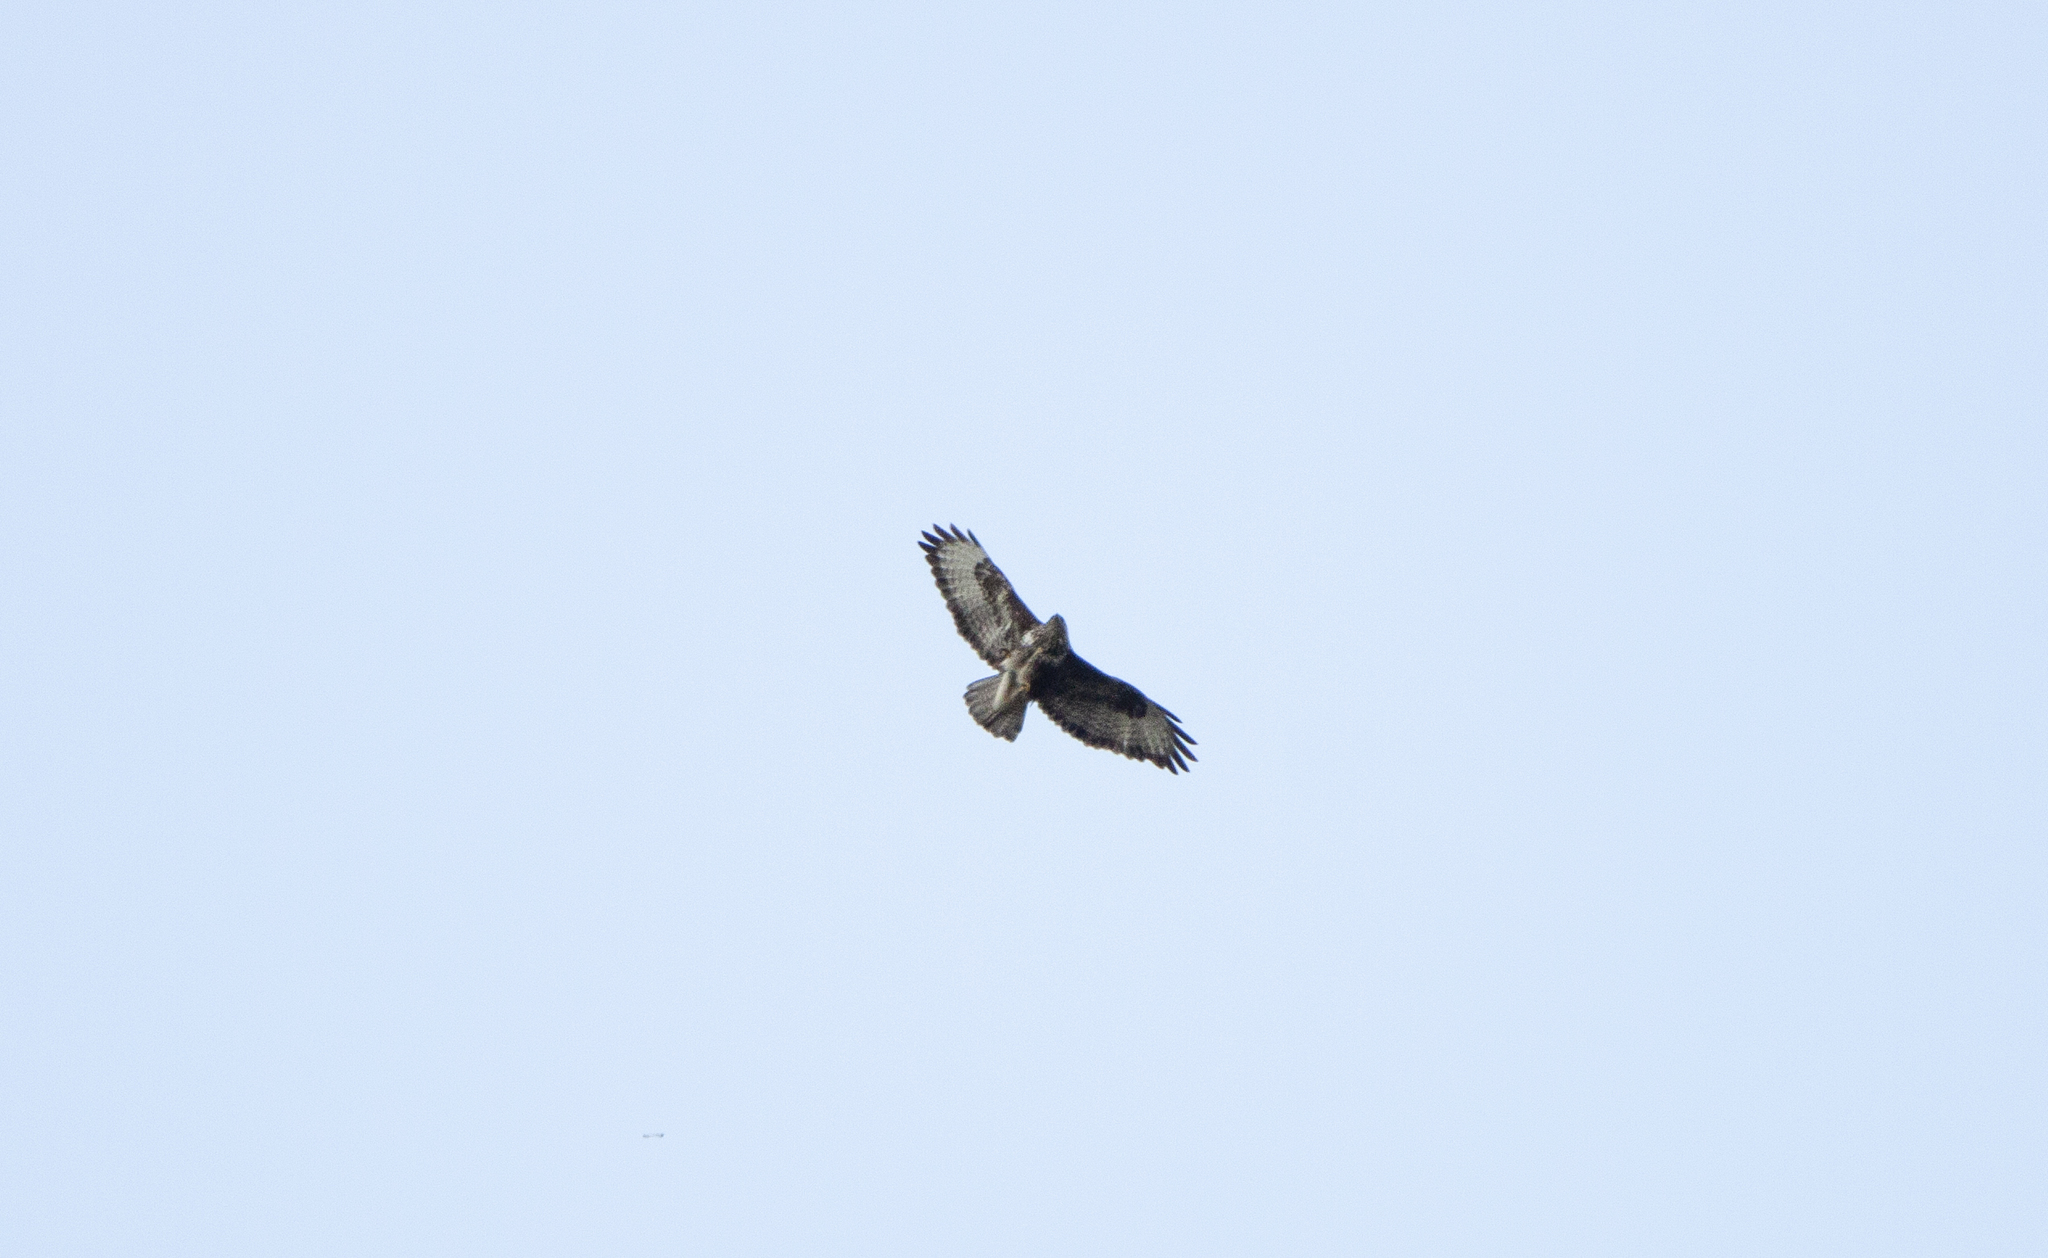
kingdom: Animalia
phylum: Chordata
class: Aves
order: Accipitriformes
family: Accipitridae
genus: Buteo
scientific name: Buteo buteo
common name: Common buzzard
